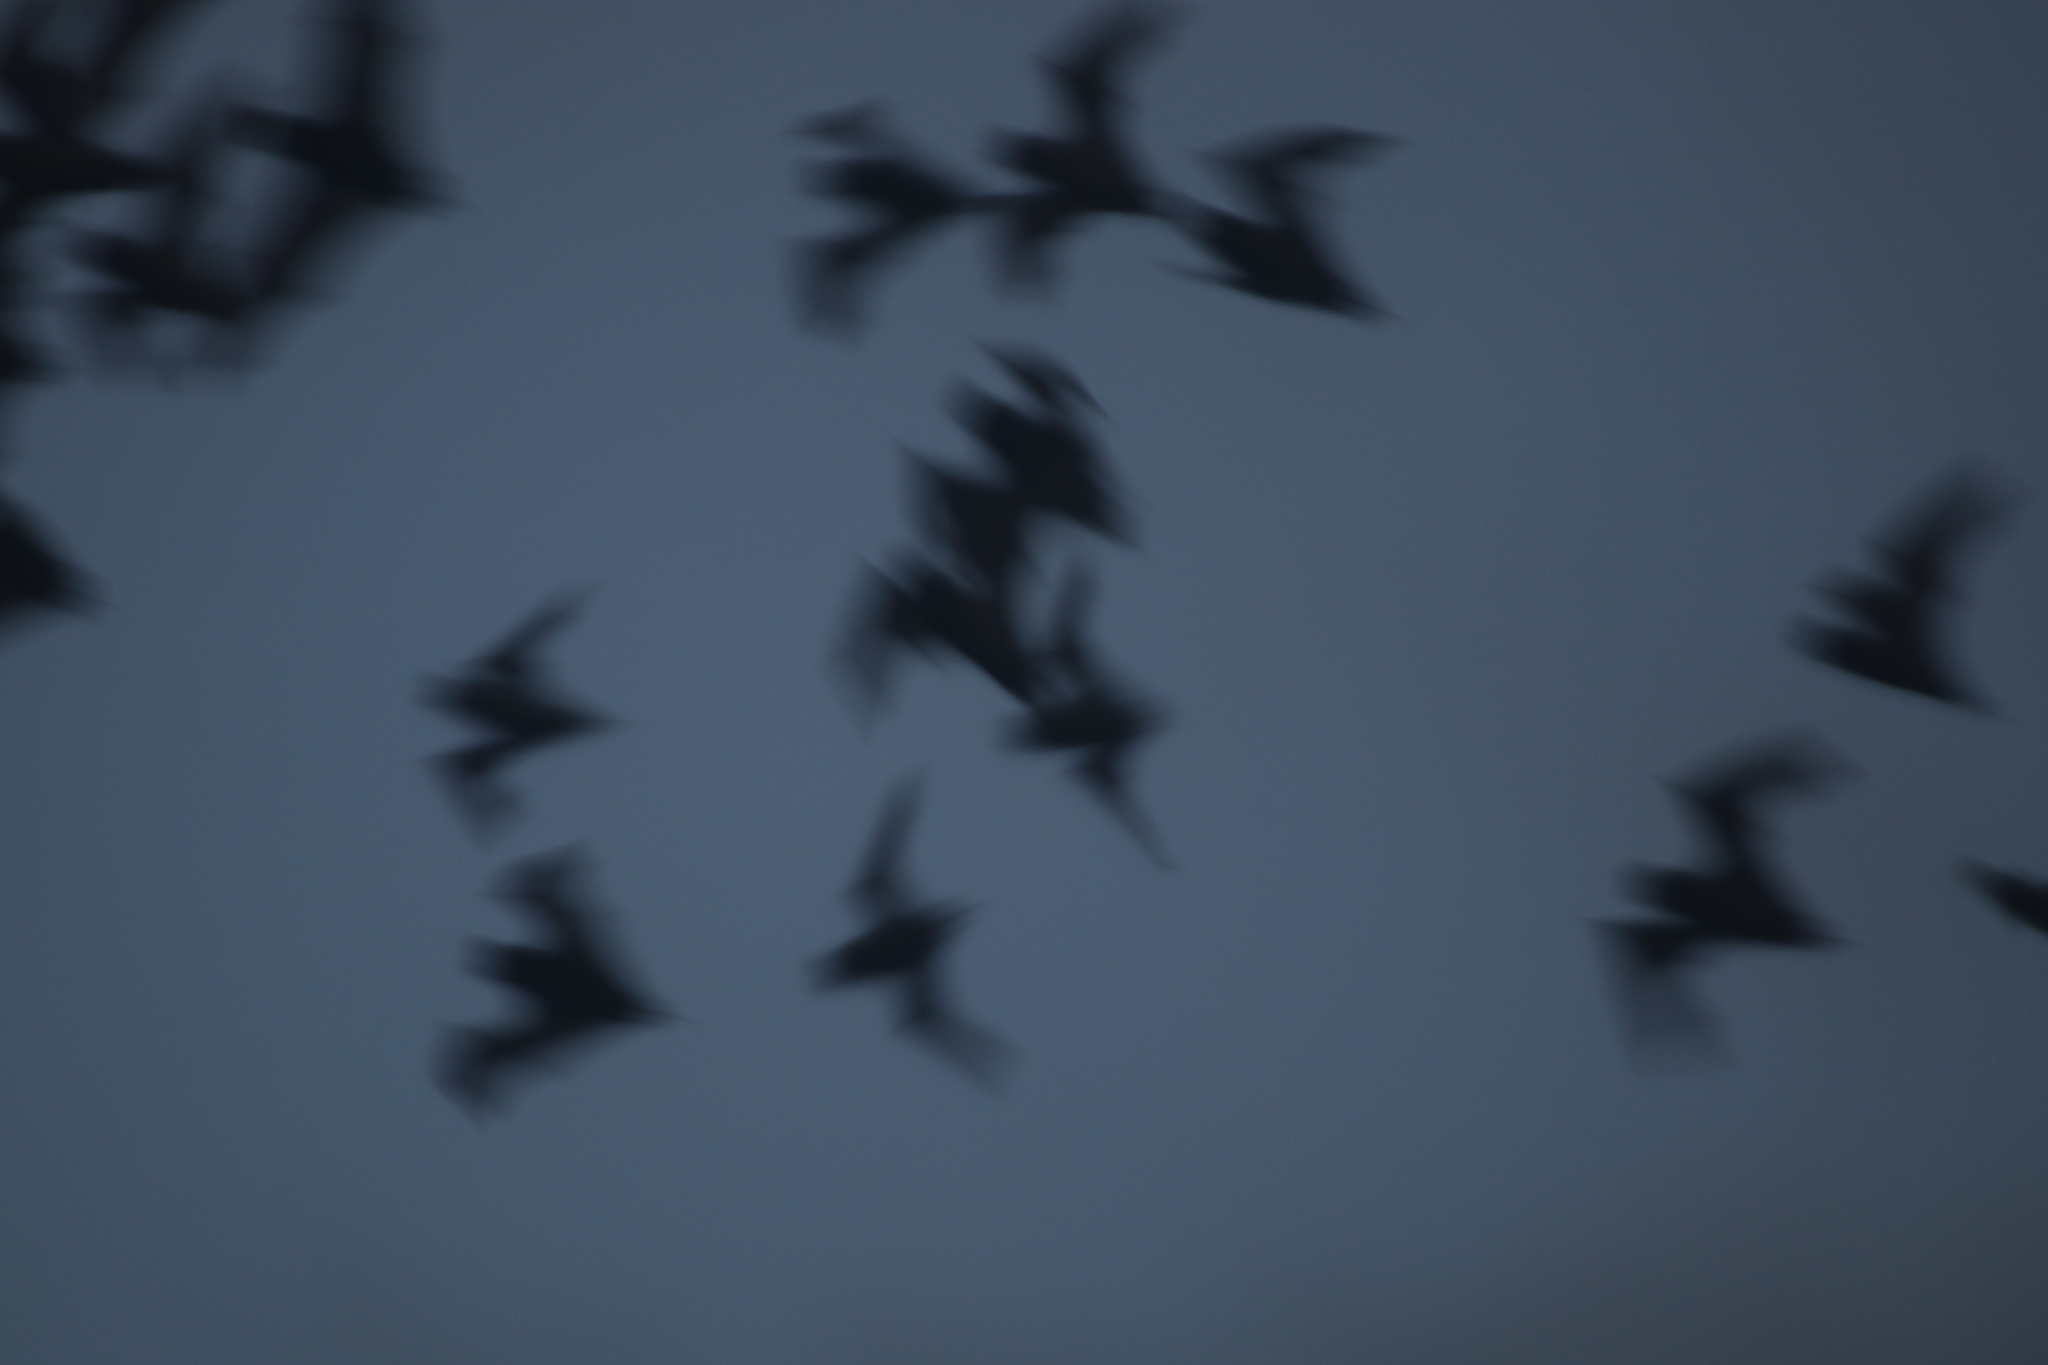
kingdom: Animalia
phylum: Chordata
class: Mammalia
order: Chiroptera
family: Molossidae
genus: Nyctinomops
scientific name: Nyctinomops laticaudatus
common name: Broad-eared free-tailed bat
